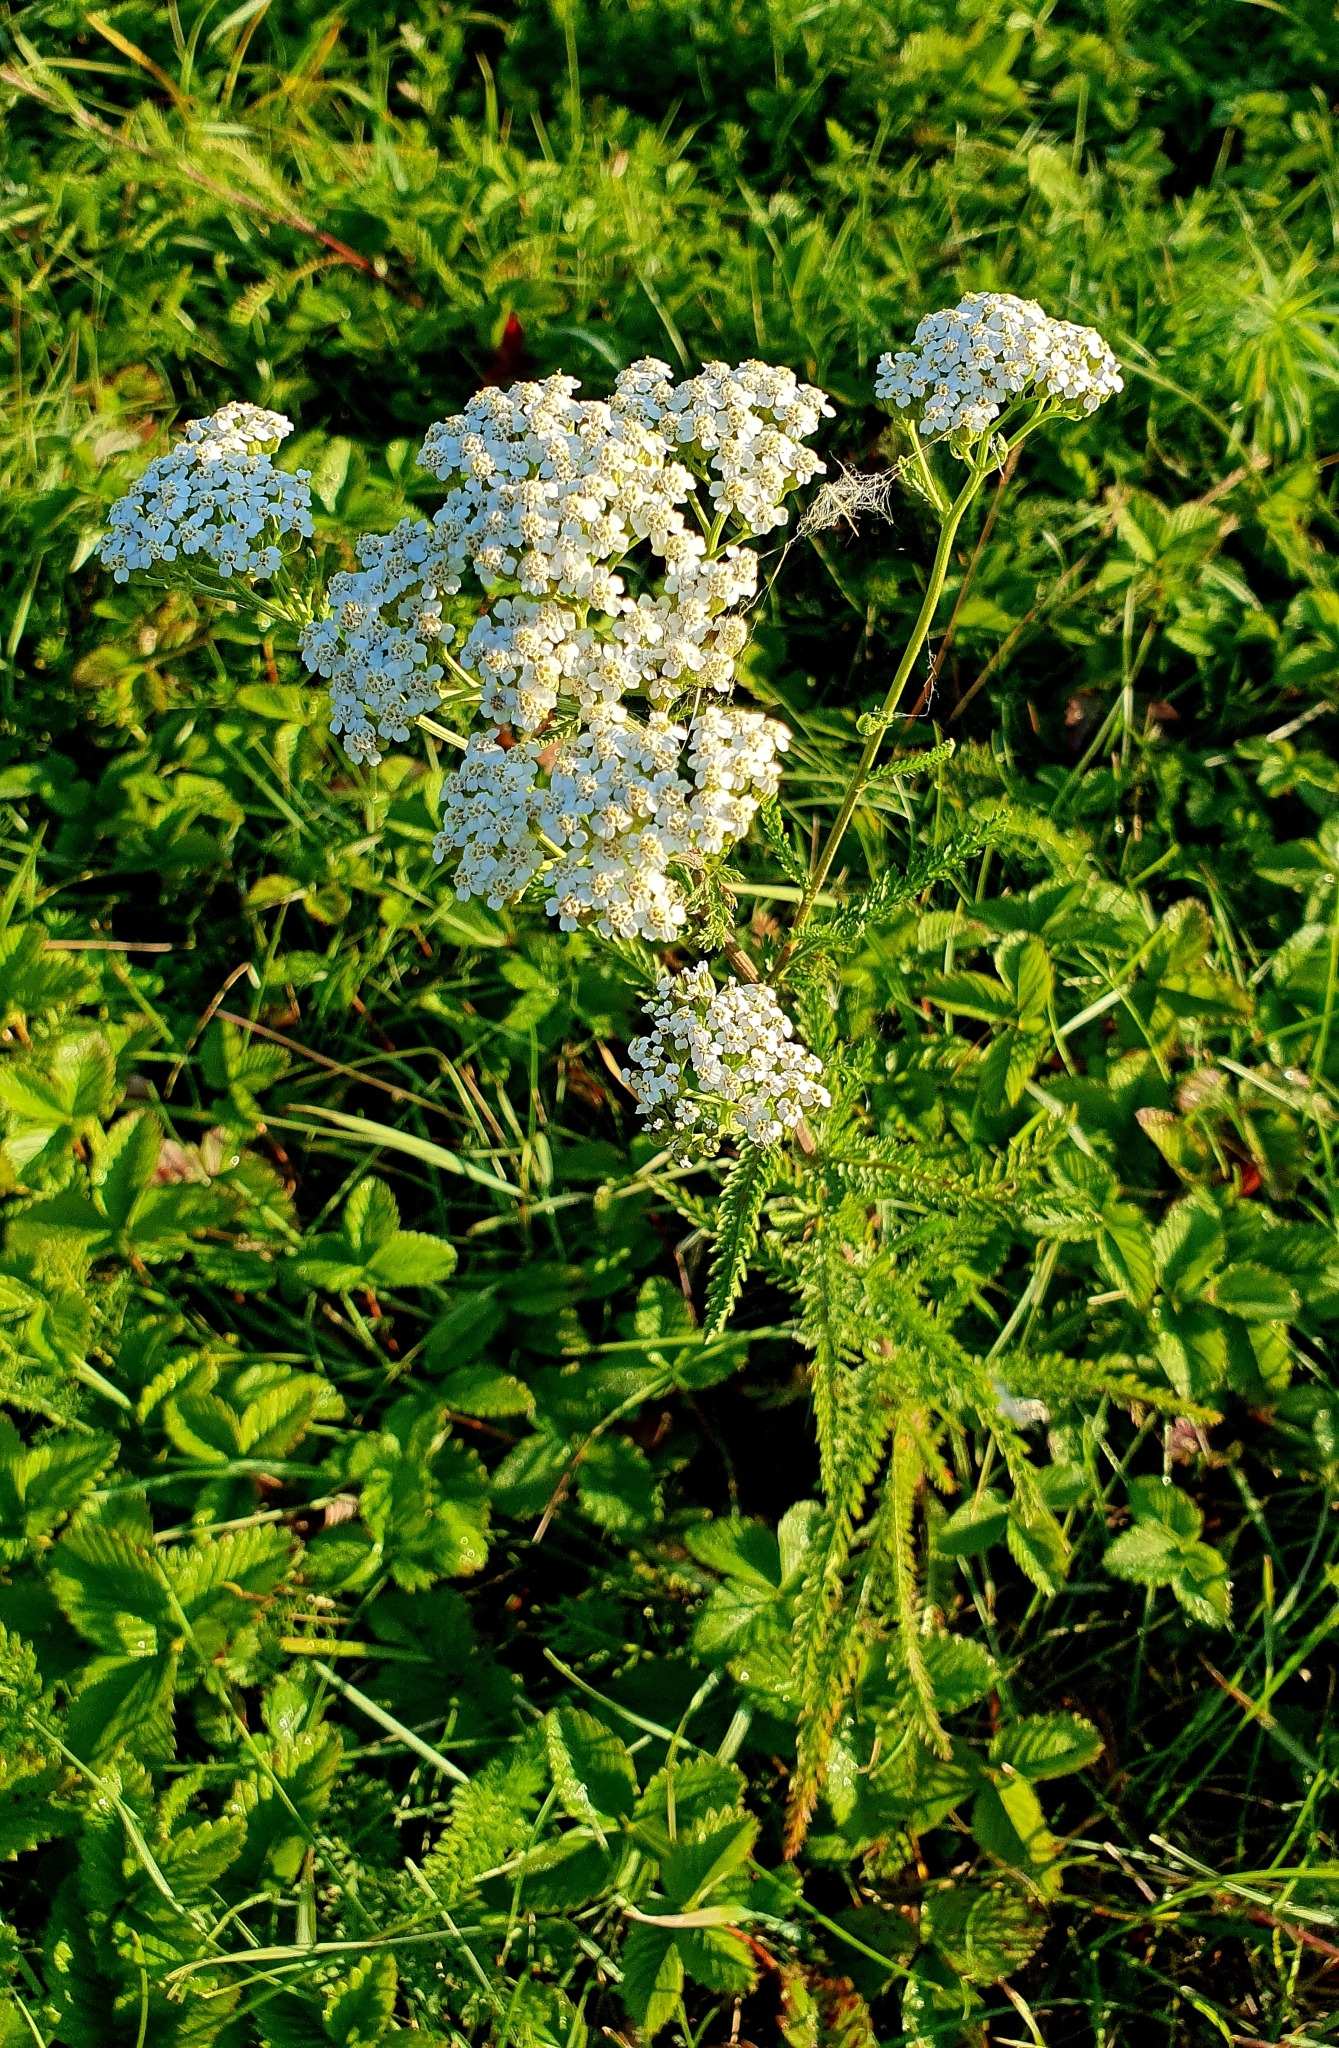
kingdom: Plantae
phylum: Tracheophyta
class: Magnoliopsida
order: Asterales
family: Asteraceae
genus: Achillea
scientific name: Achillea millefolium
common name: Yarrow
